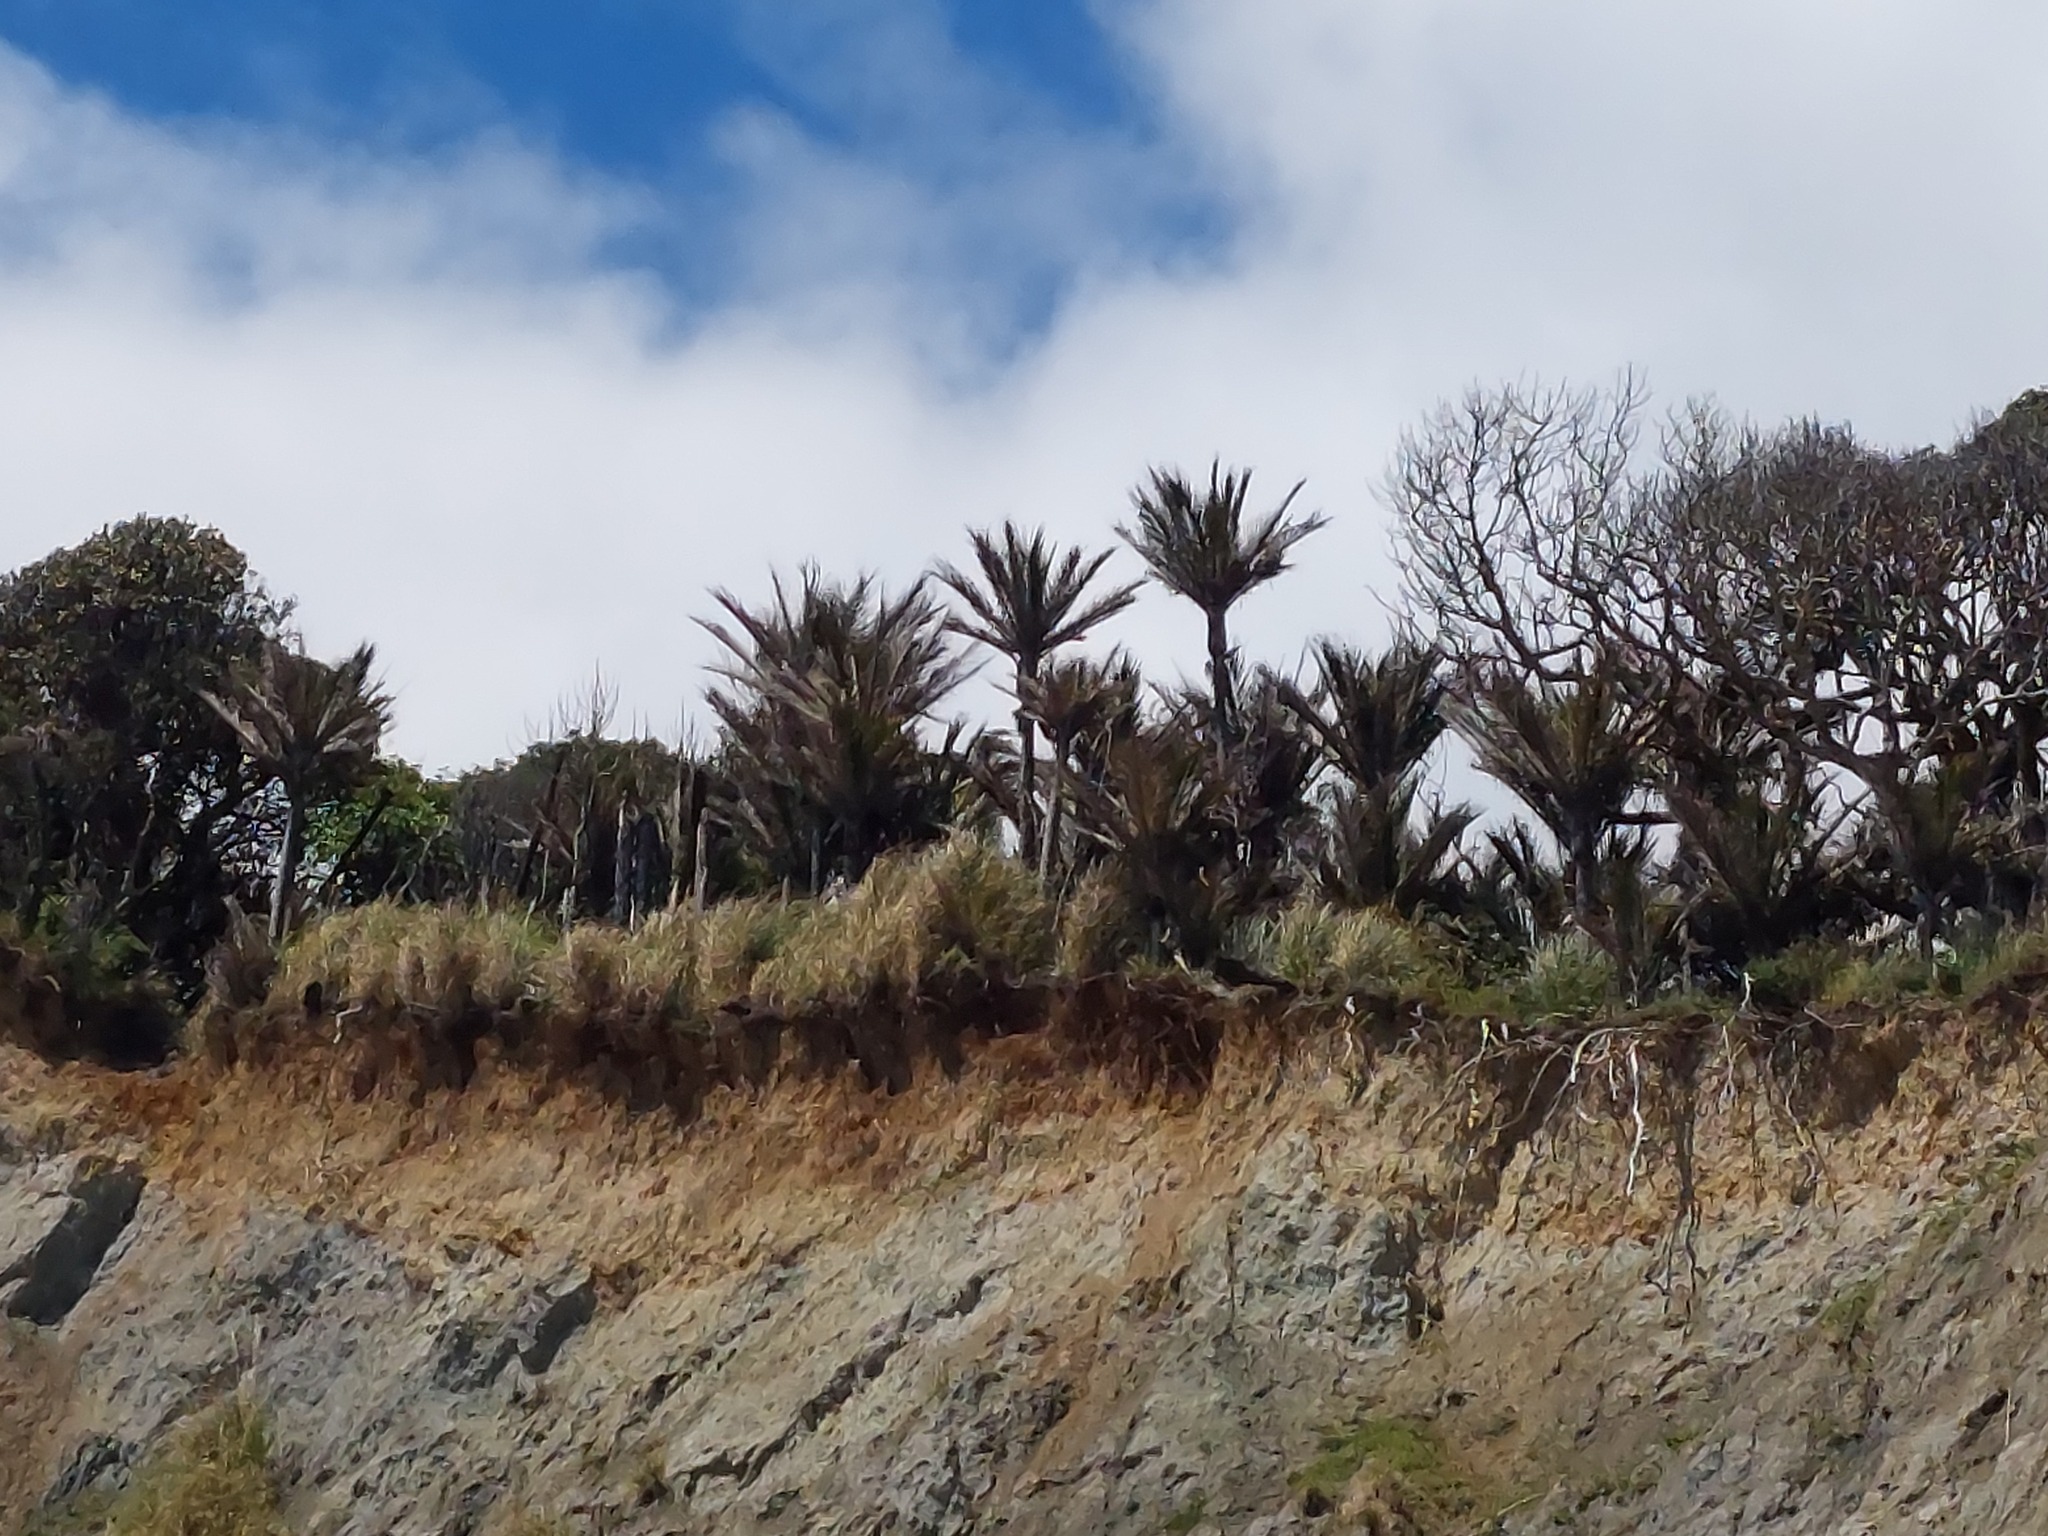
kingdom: Plantae
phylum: Tracheophyta
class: Liliopsida
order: Arecales
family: Arecaceae
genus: Rhopalostylis
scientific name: Rhopalostylis sapida
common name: Feather-duster palm
